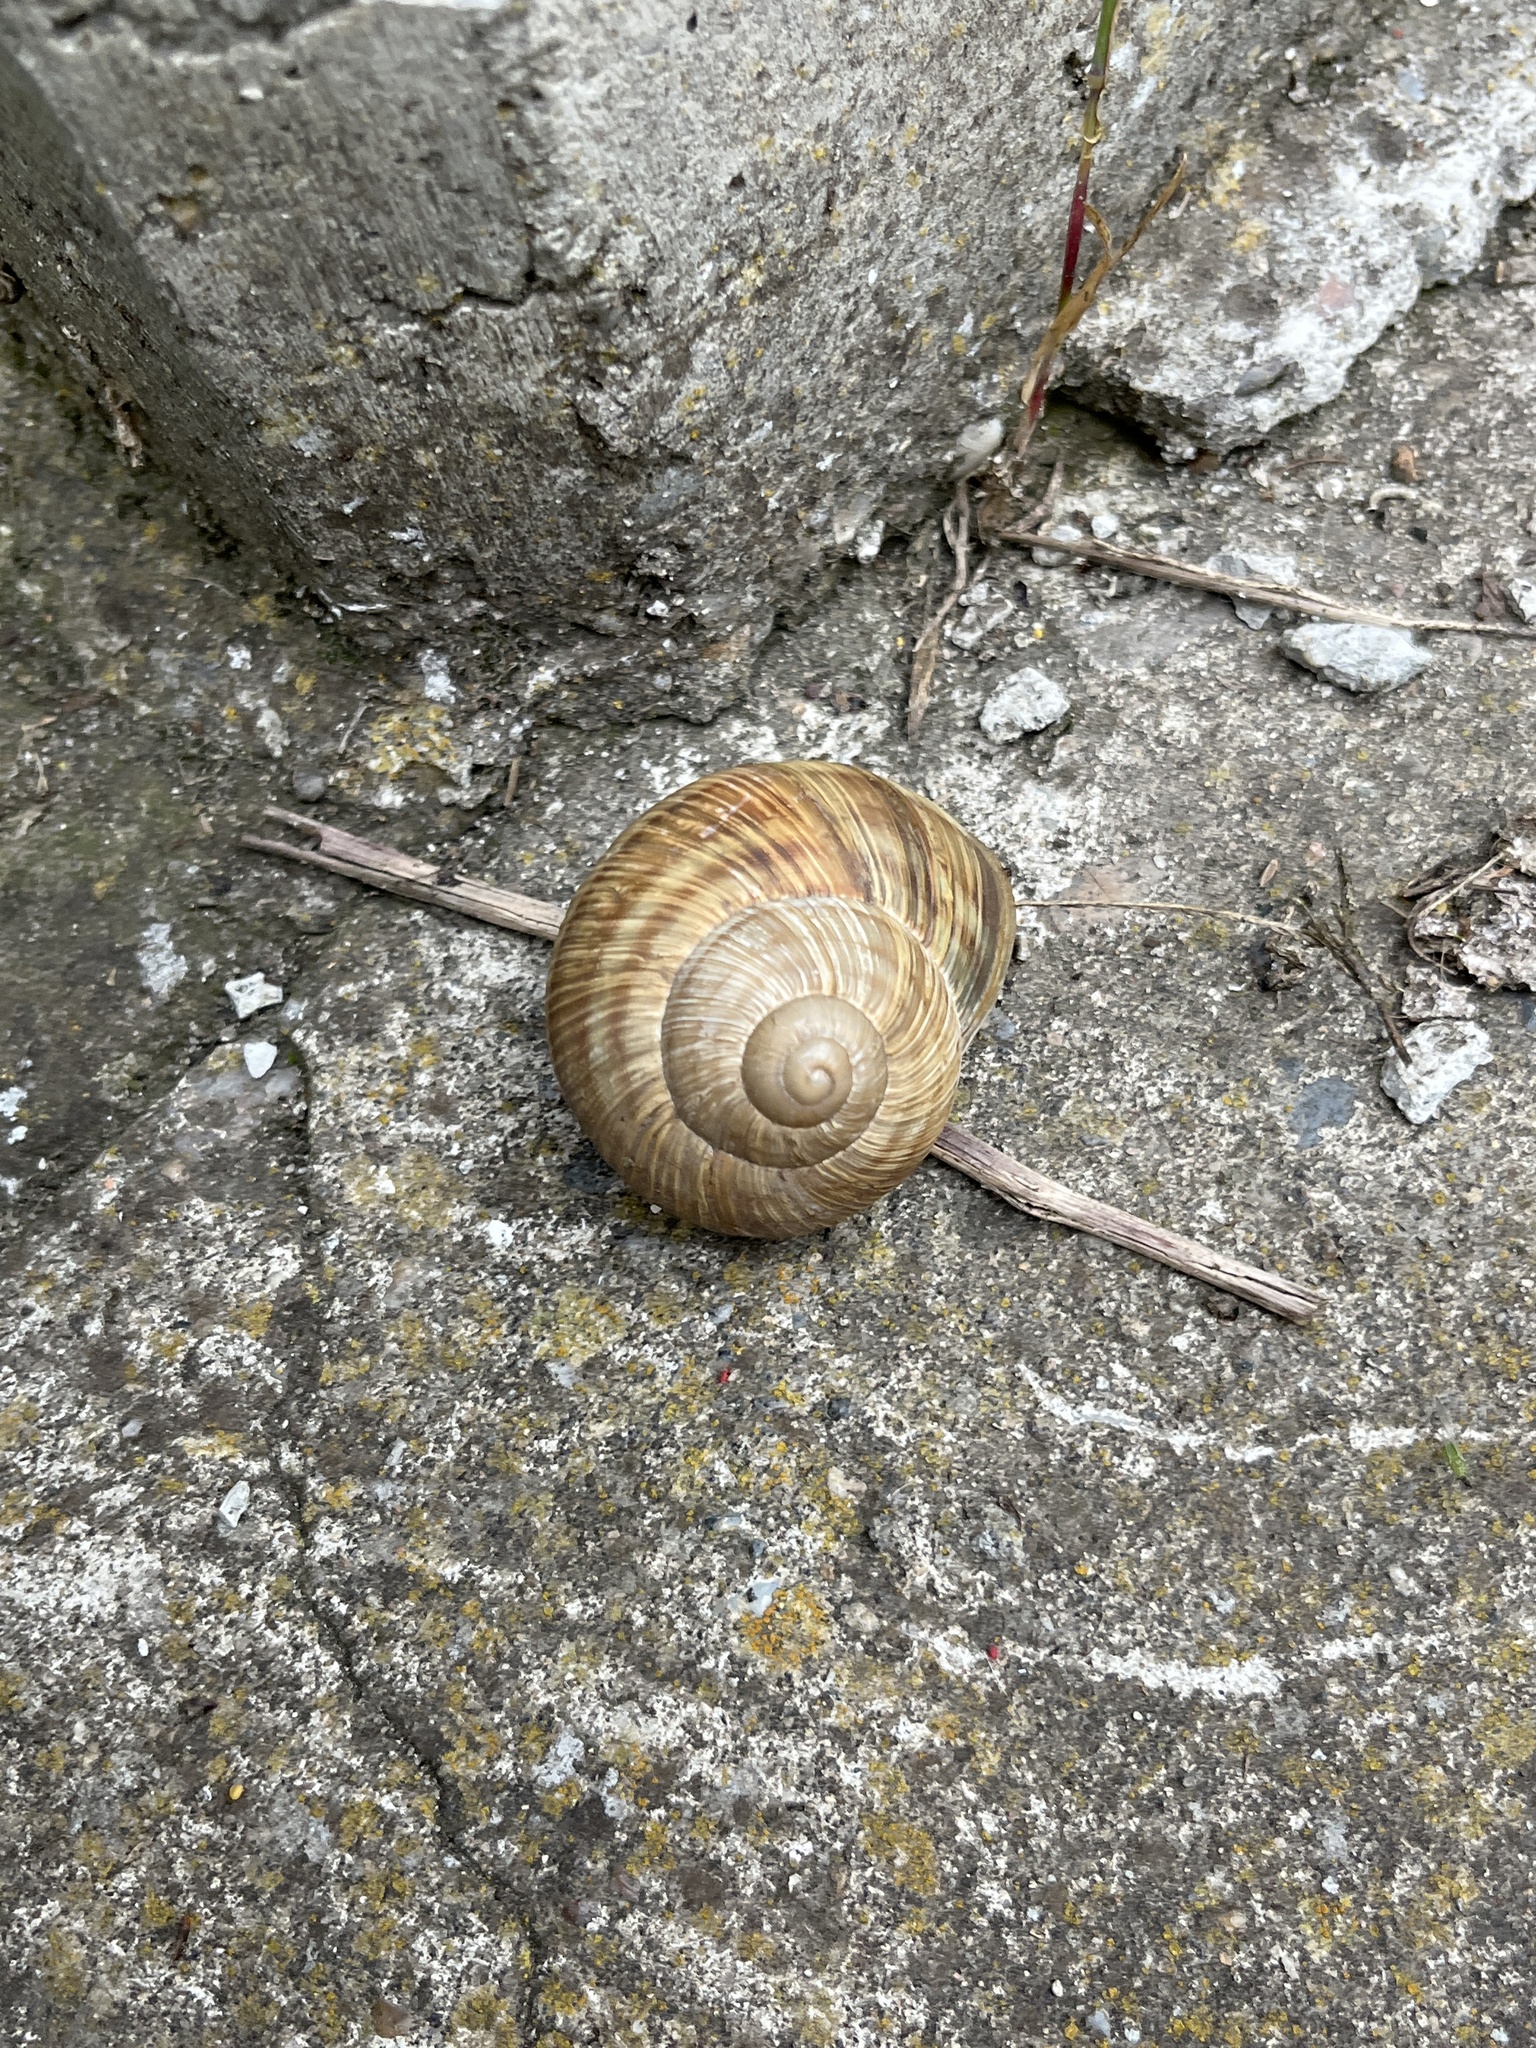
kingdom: Animalia
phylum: Mollusca
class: Gastropoda
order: Stylommatophora
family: Helicidae
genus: Helix
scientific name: Helix pomatia
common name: Roman snail
